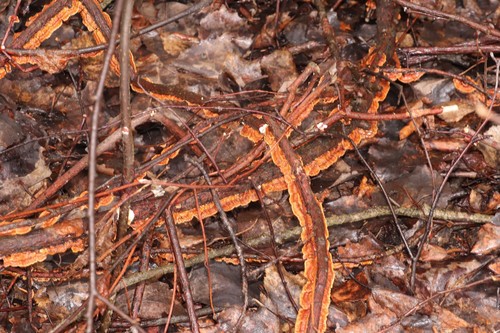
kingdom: Fungi
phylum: Basidiomycota
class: Agaricomycetes
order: Hymenochaetales
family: Hymenochaetaceae
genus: Hydnoporia
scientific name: Hydnoporia tabacina
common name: Willow glue
